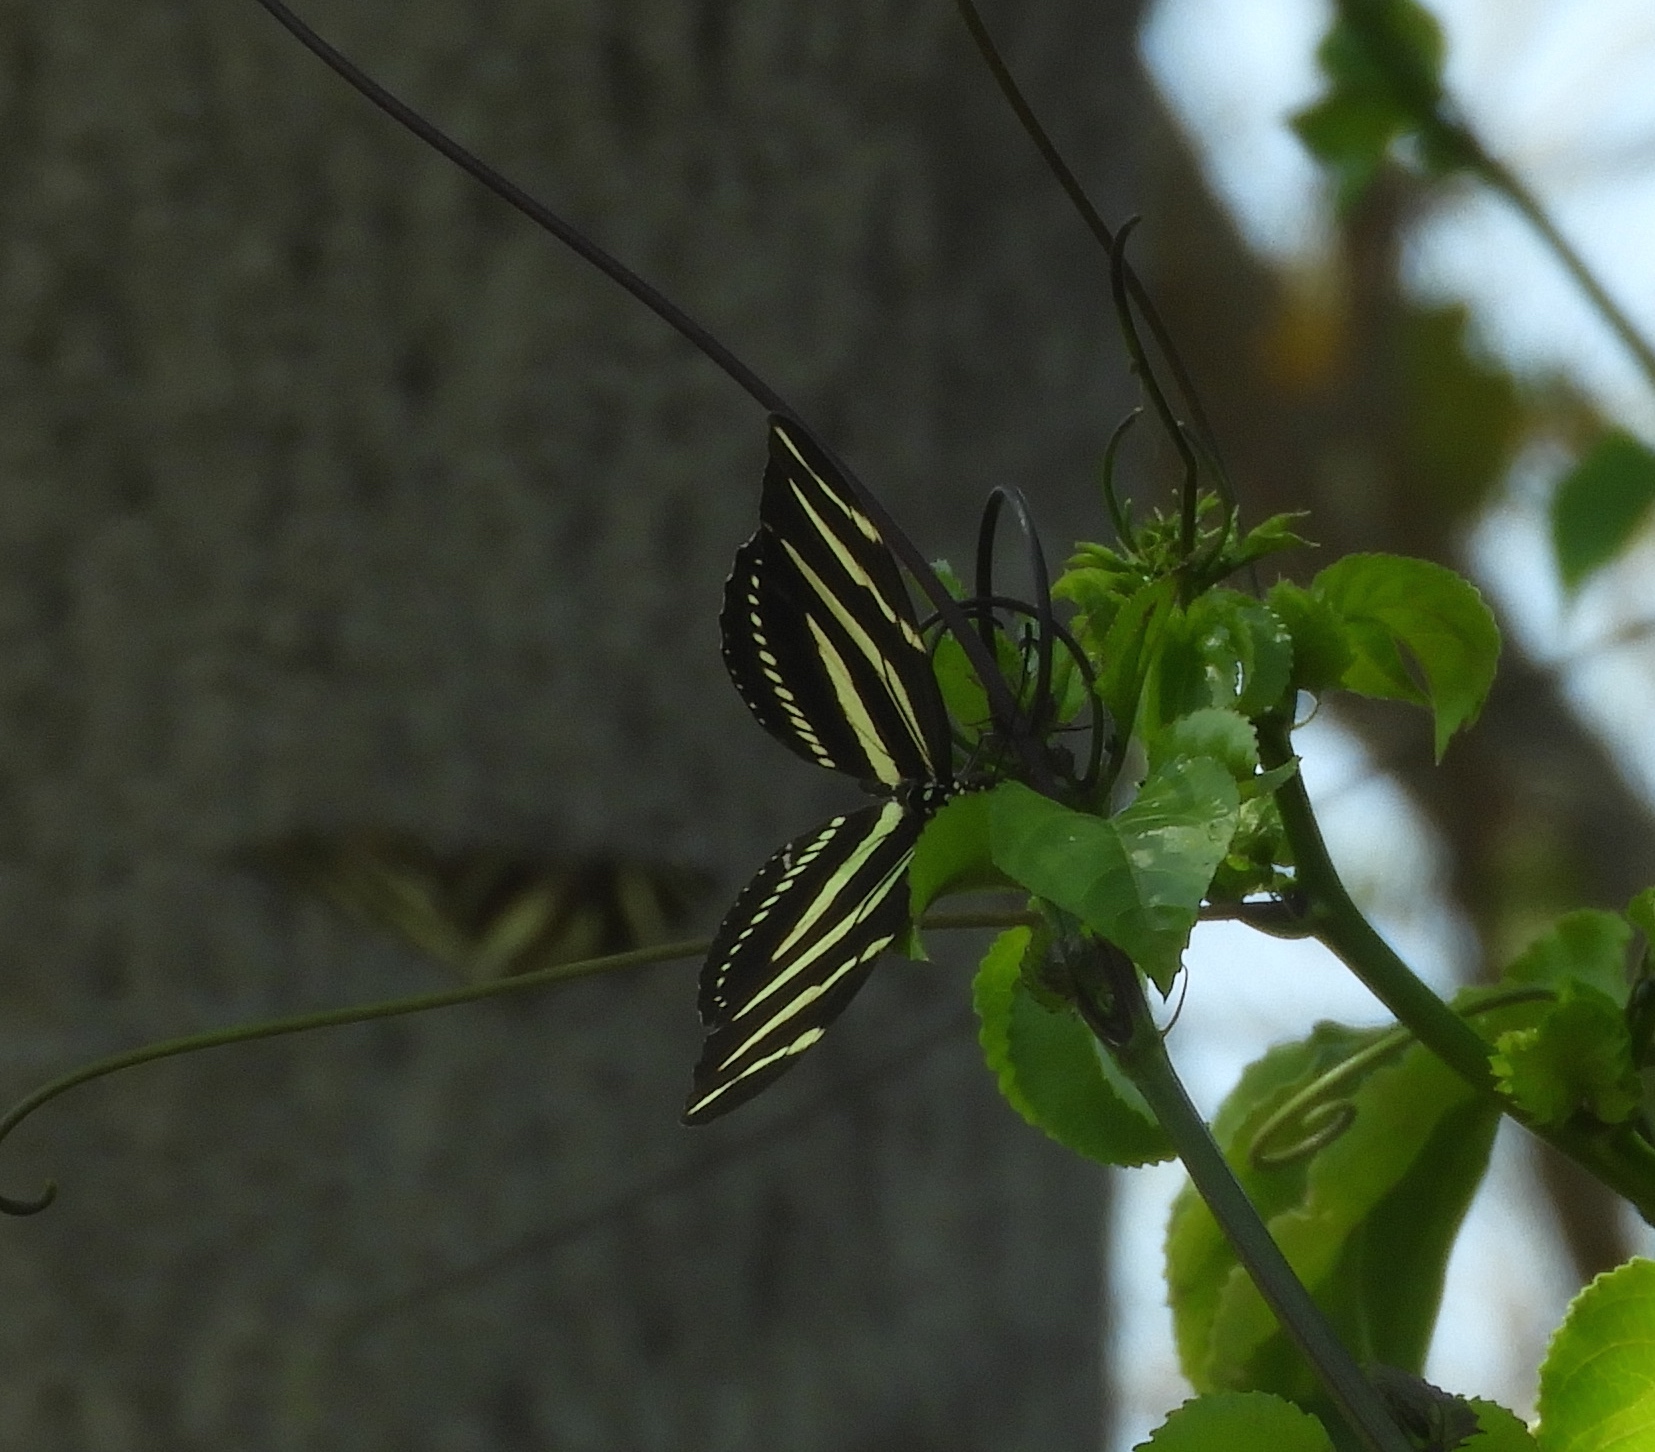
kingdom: Animalia
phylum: Arthropoda
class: Insecta
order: Lepidoptera
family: Nymphalidae
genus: Heliconius
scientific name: Heliconius charithonia
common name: Zebra long wing
